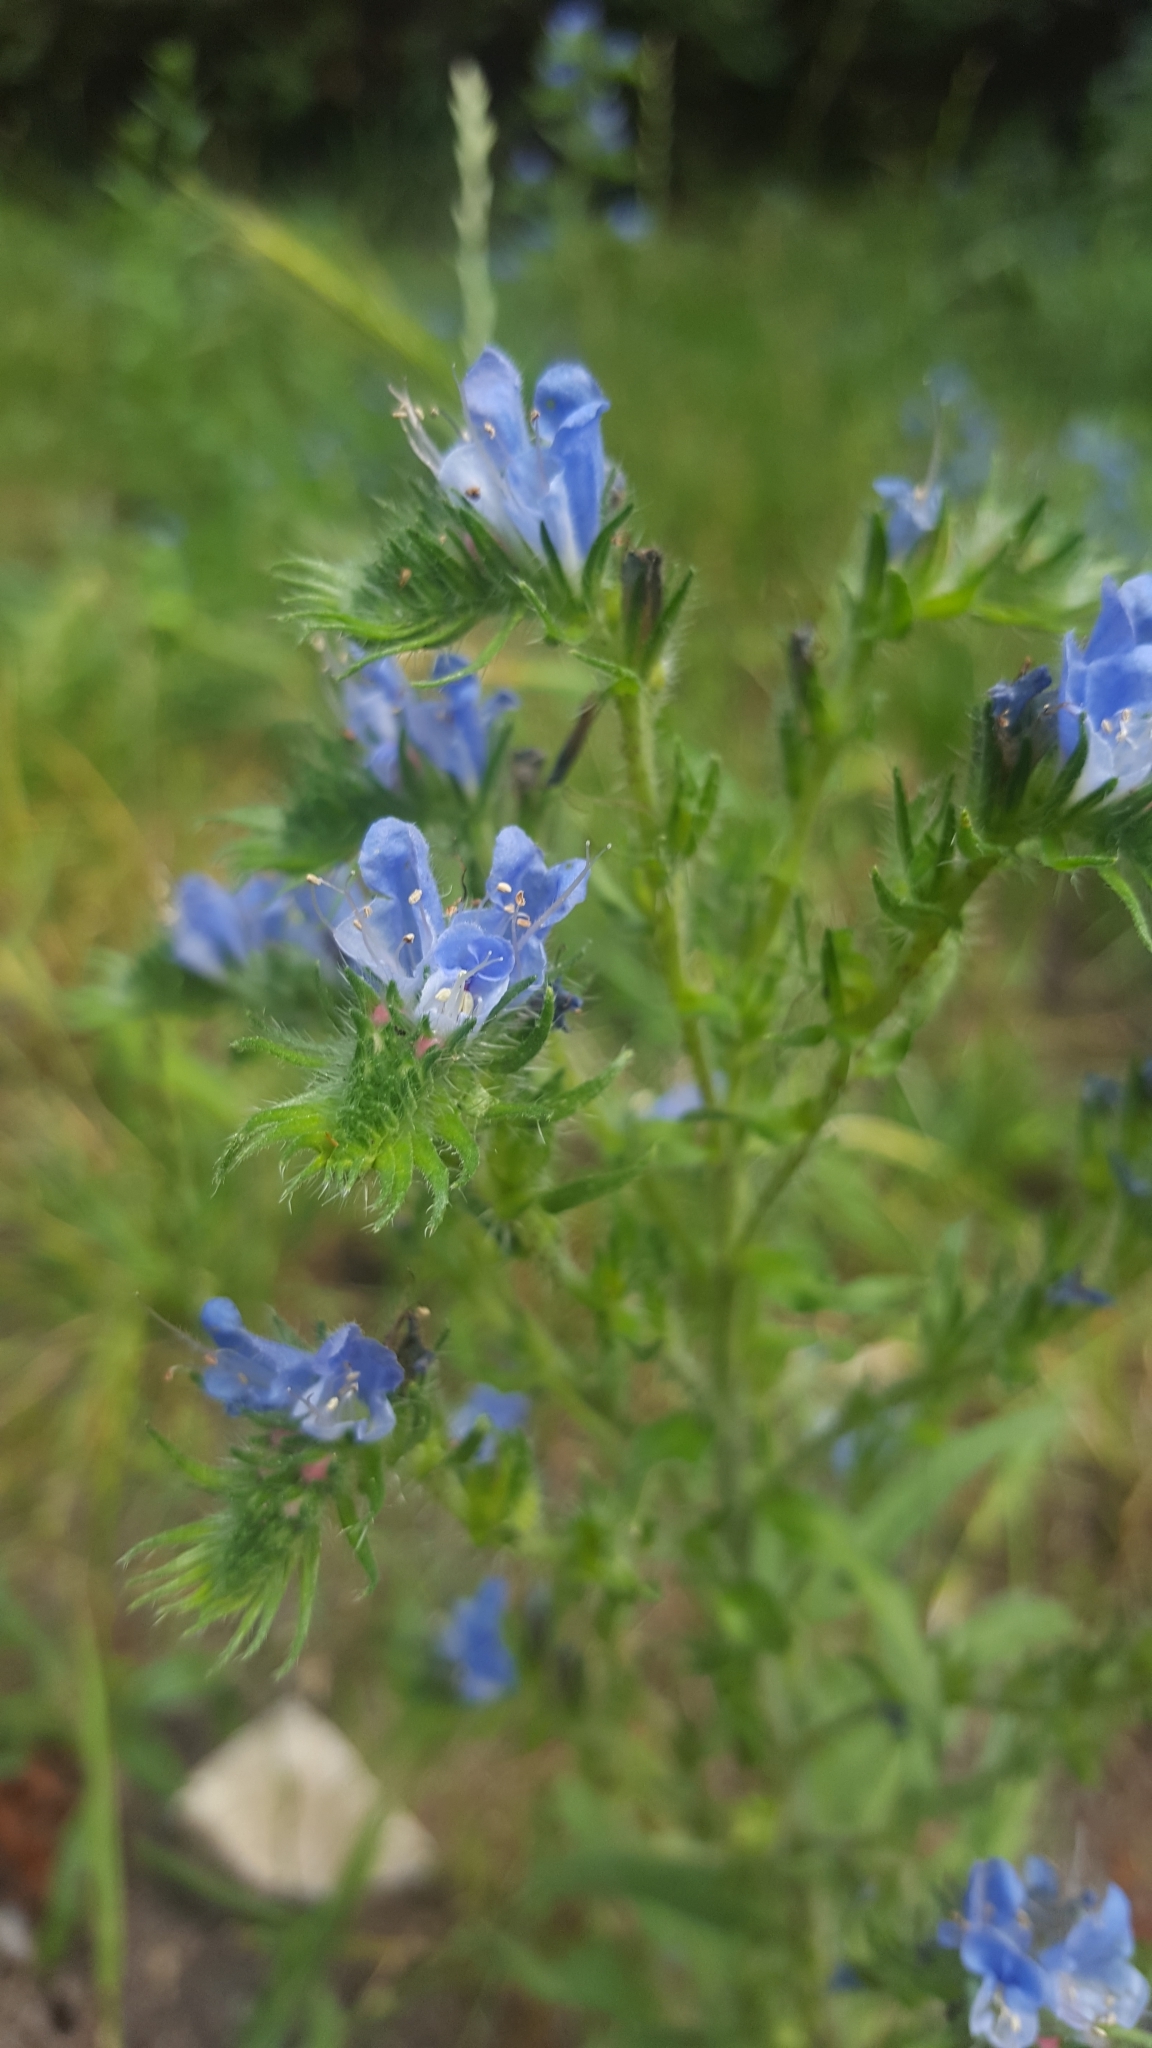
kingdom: Plantae
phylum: Tracheophyta
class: Magnoliopsida
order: Boraginales
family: Boraginaceae
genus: Echium
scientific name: Echium vulgare
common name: Common viper's bugloss
